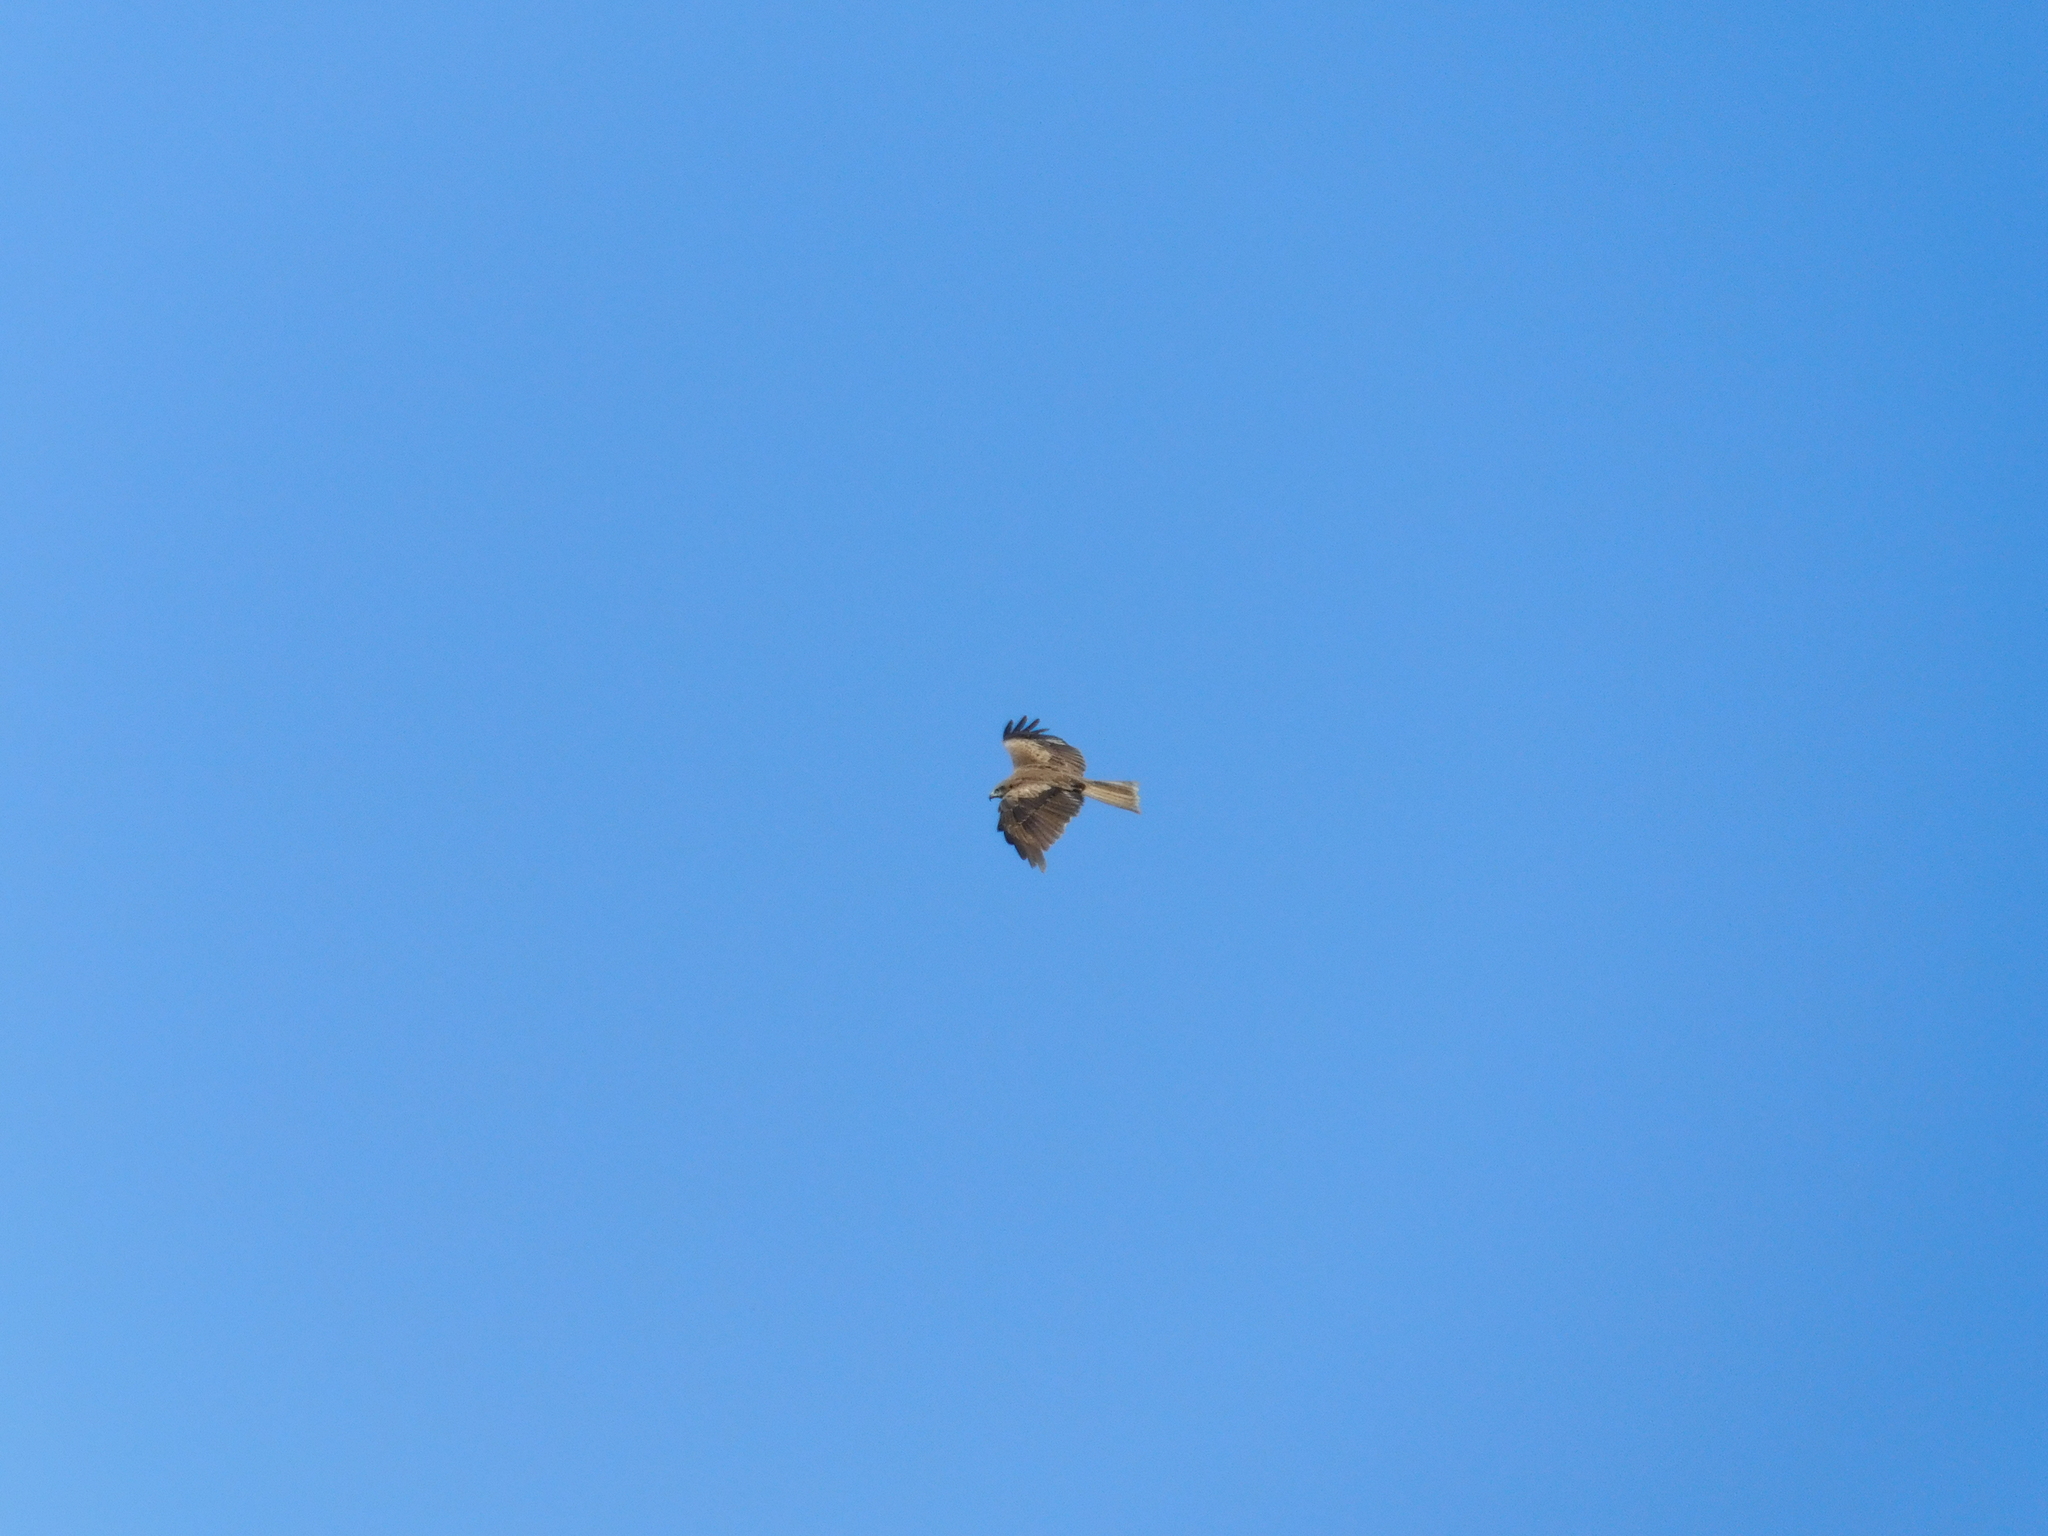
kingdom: Animalia
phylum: Chordata
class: Aves
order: Accipitriformes
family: Accipitridae
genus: Milvus
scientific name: Milvus migrans
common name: Black kite
